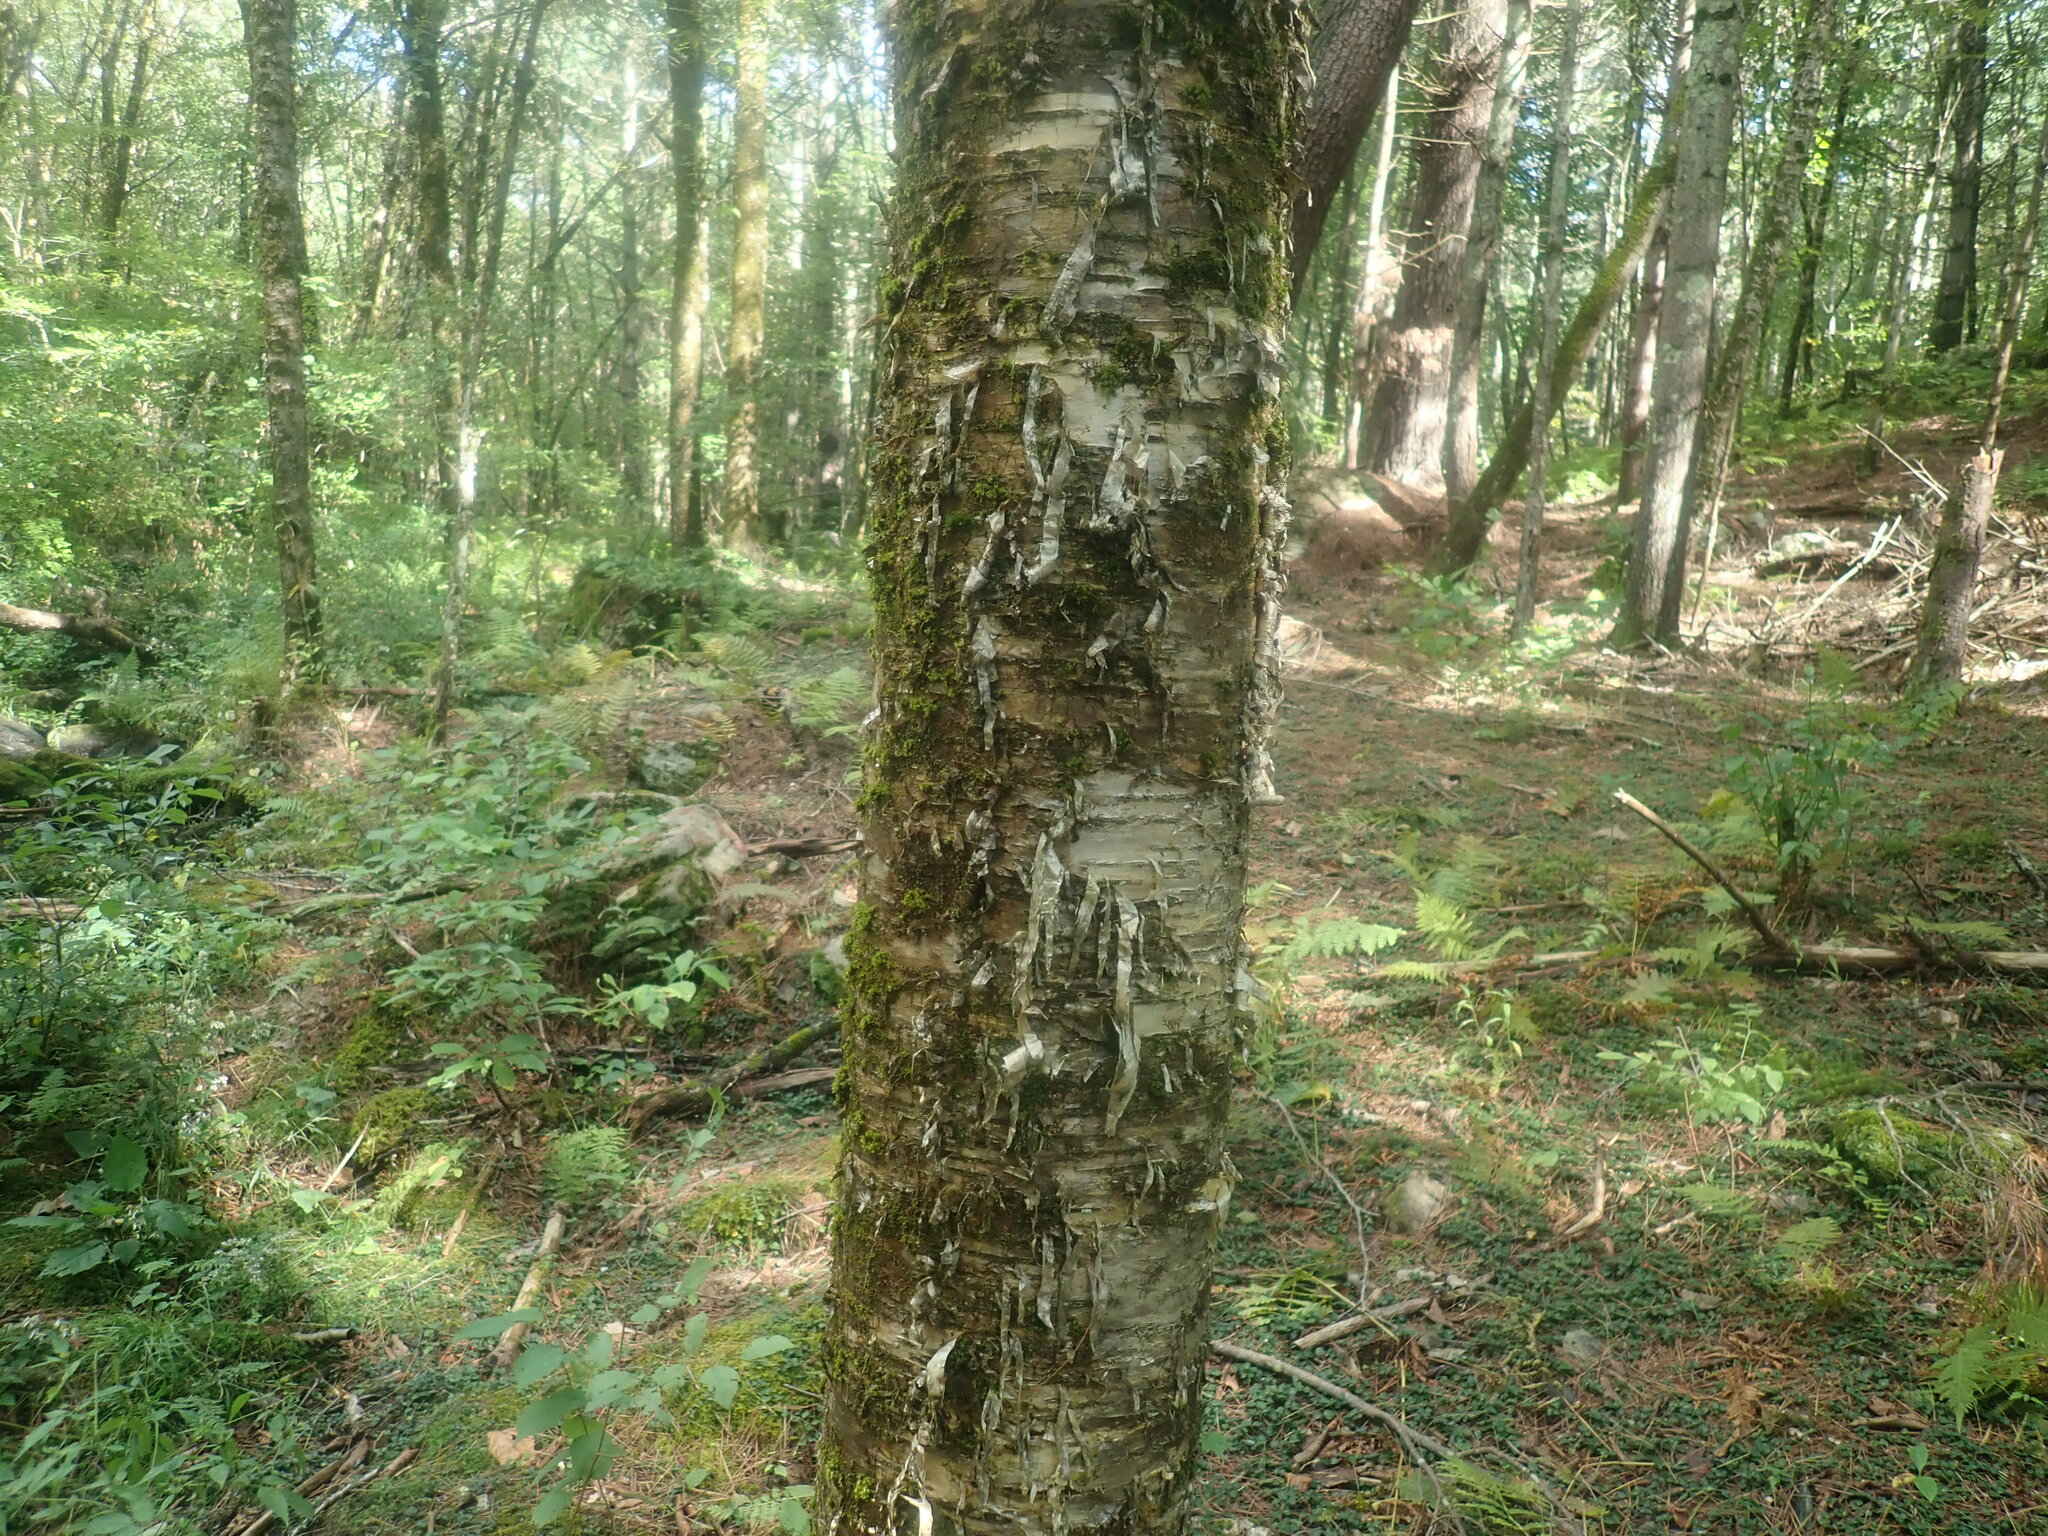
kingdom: Plantae
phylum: Tracheophyta
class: Magnoliopsida
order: Fagales
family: Betulaceae
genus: Betula
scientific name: Betula alleghaniensis
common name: Yellow birch
